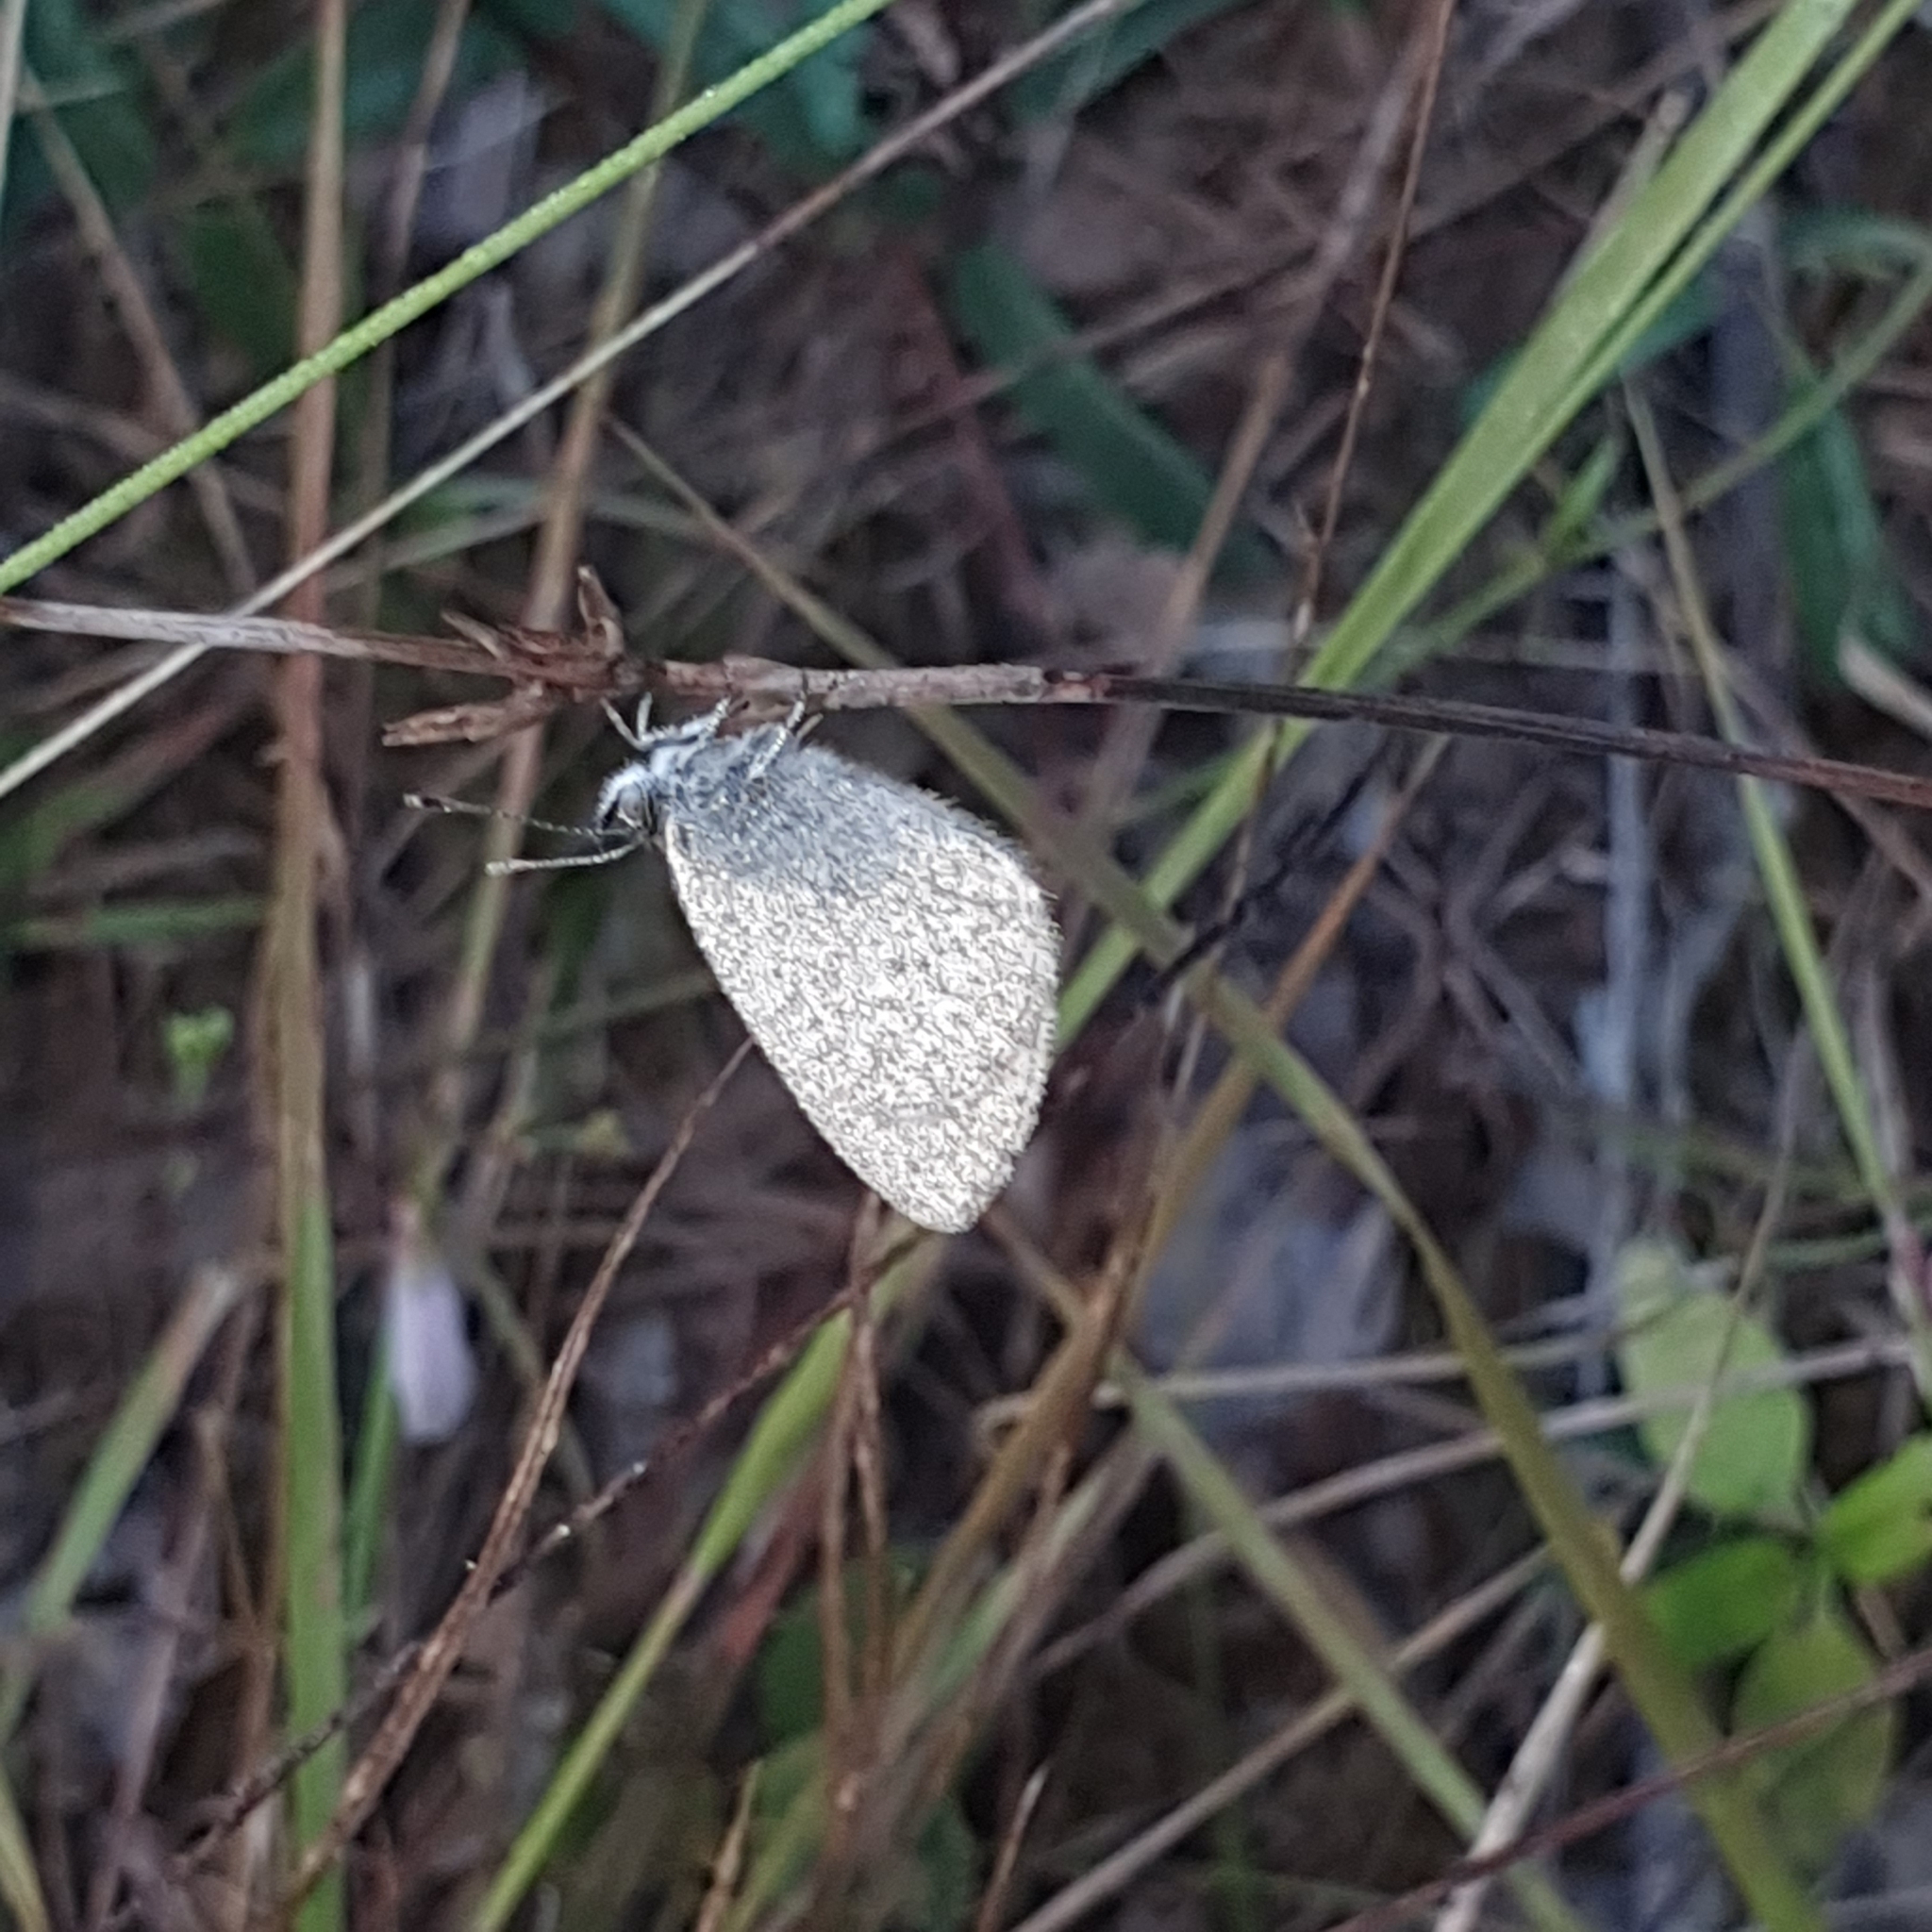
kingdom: Animalia
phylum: Arthropoda
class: Insecta
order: Lepidoptera
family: Lycaenidae
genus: Zizina
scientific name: Zizina otis
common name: Lesser grass blue
